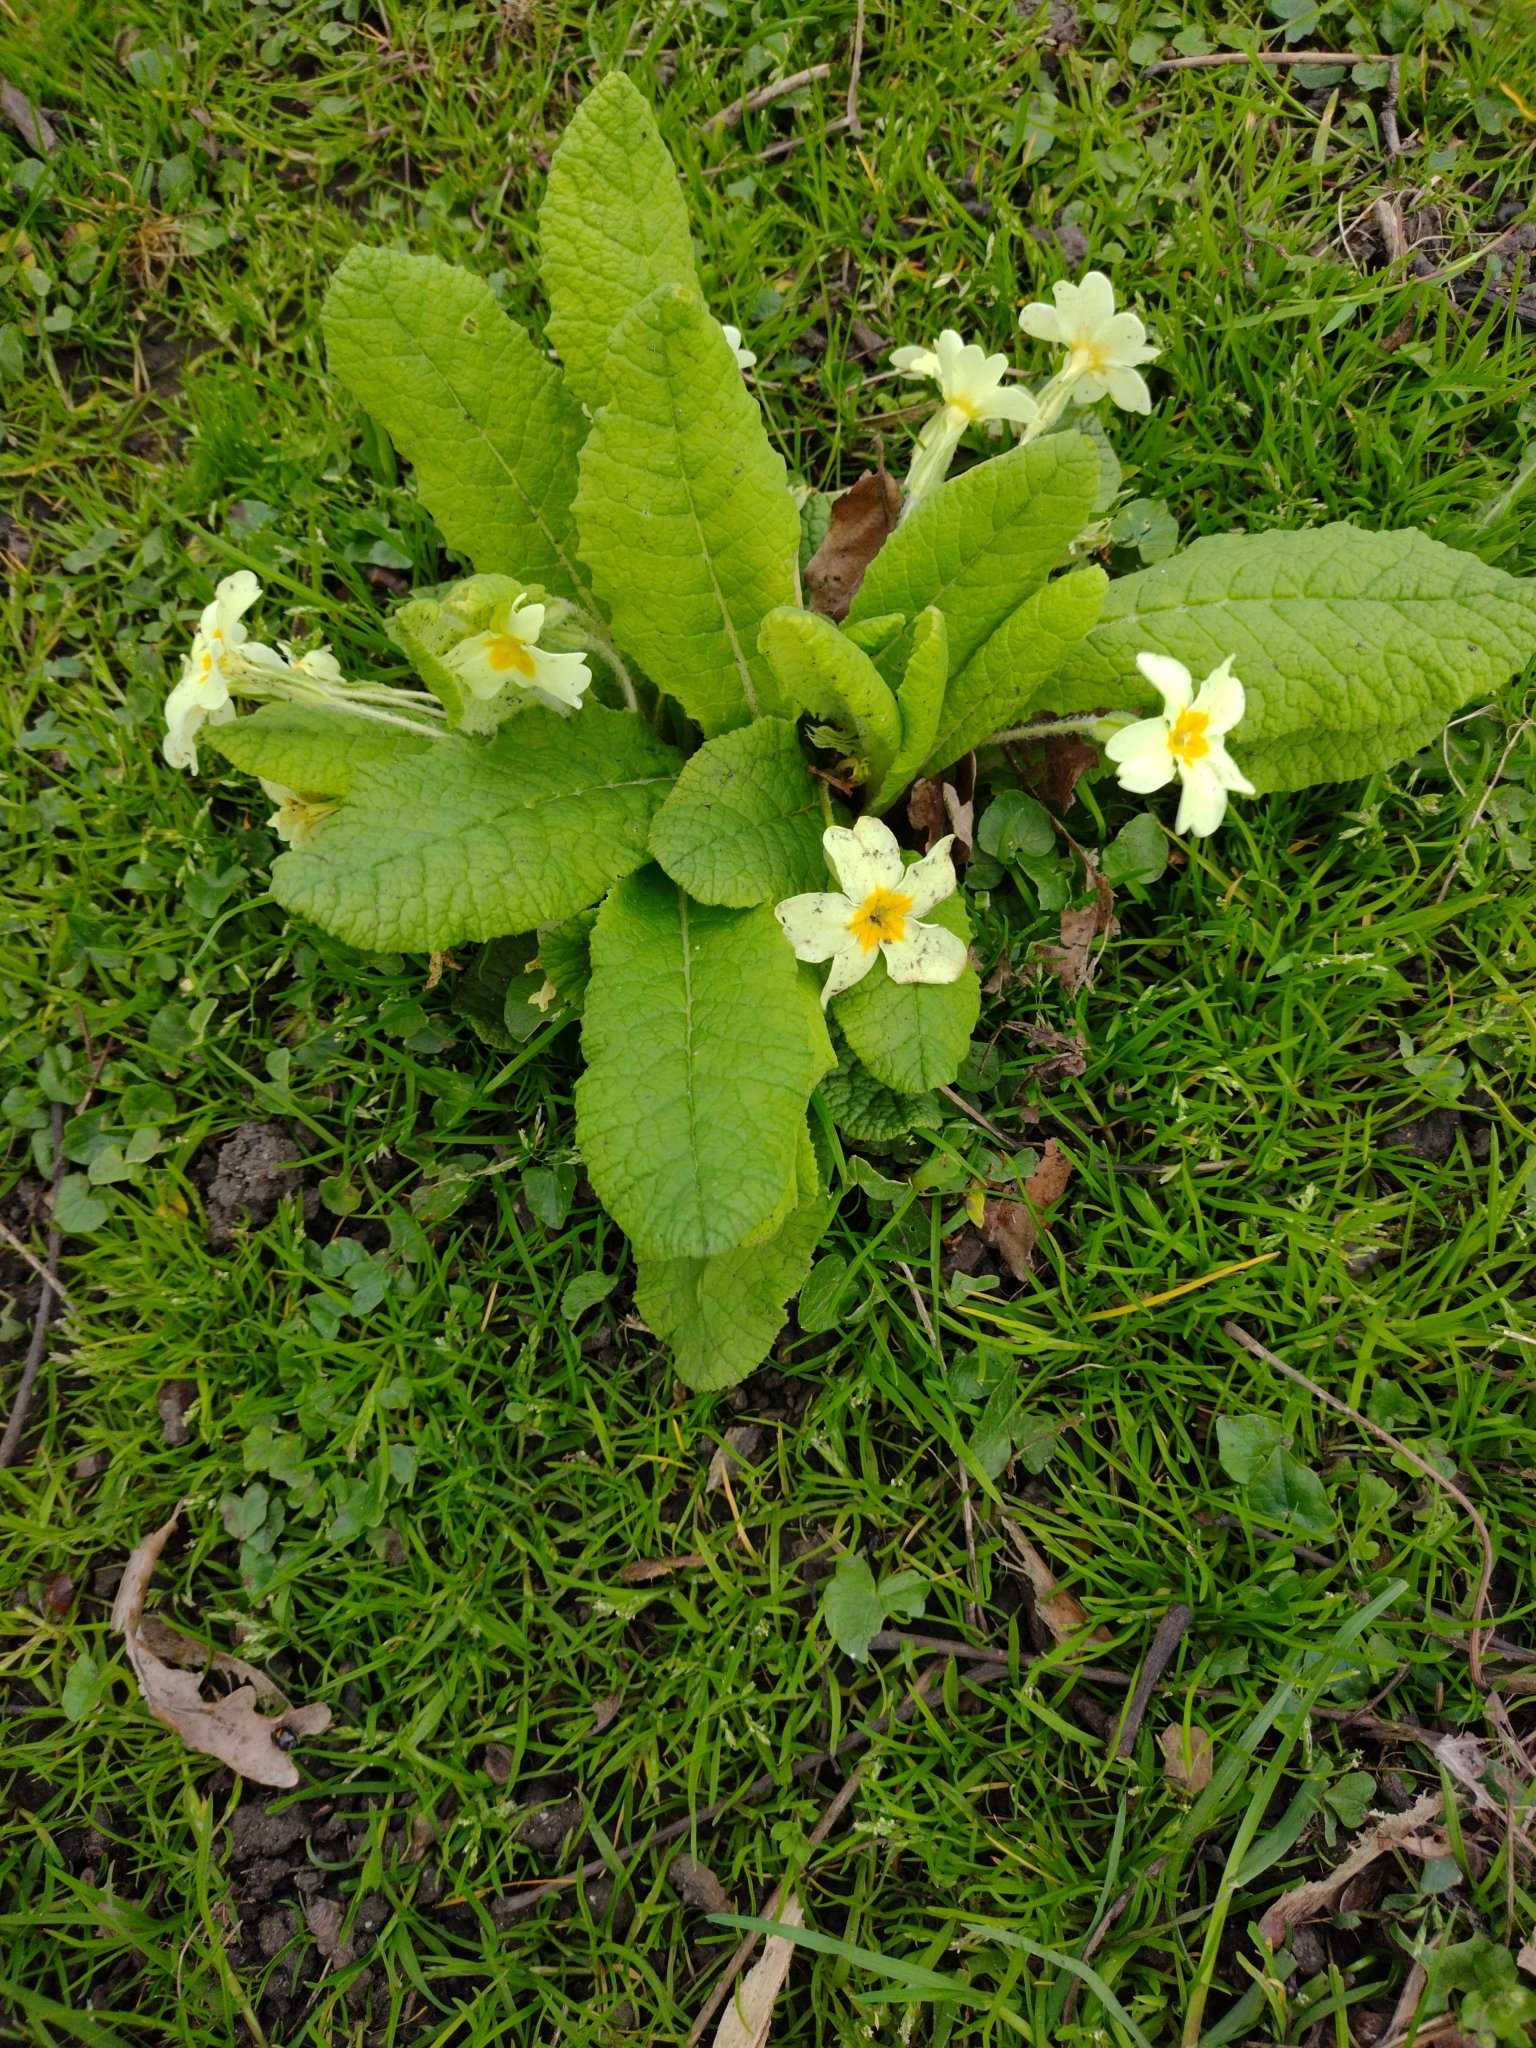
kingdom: Plantae
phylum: Tracheophyta
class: Magnoliopsida
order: Ericales
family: Primulaceae
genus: Primula
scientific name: Primula vulgaris
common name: Primrose
